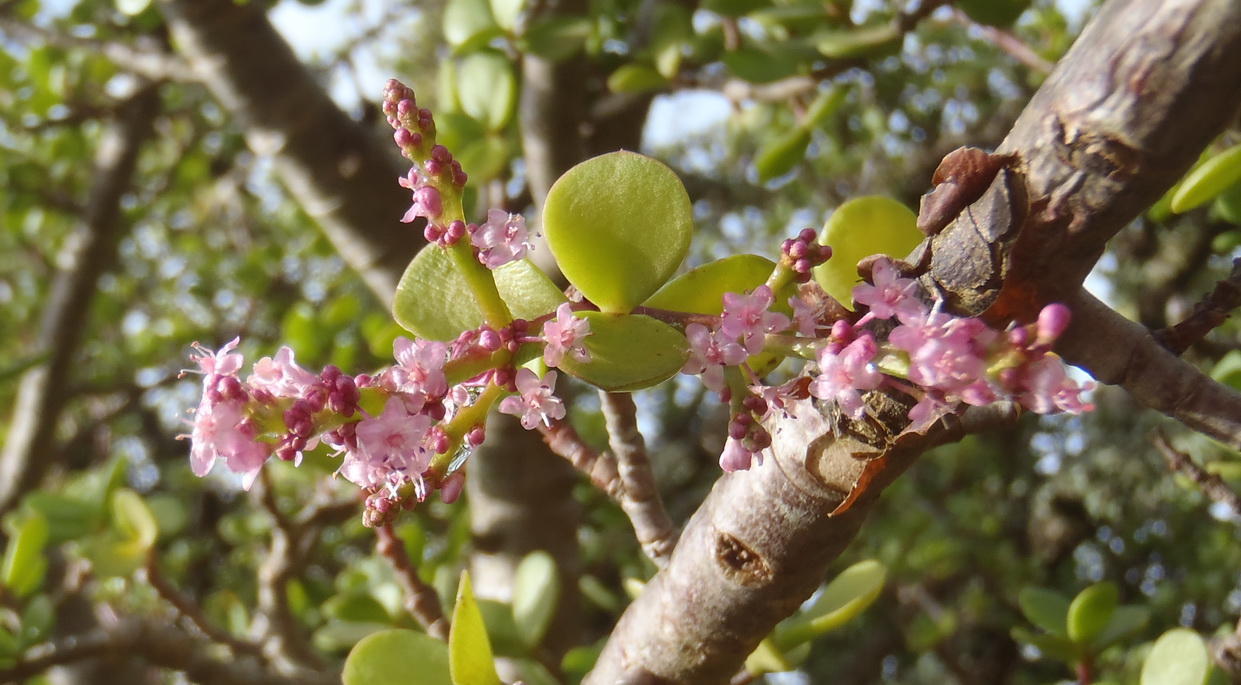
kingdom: Plantae
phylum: Tracheophyta
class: Magnoliopsida
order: Caryophyllales
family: Didiereaceae
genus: Portulacaria
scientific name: Portulacaria afra
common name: Elephant-bush
